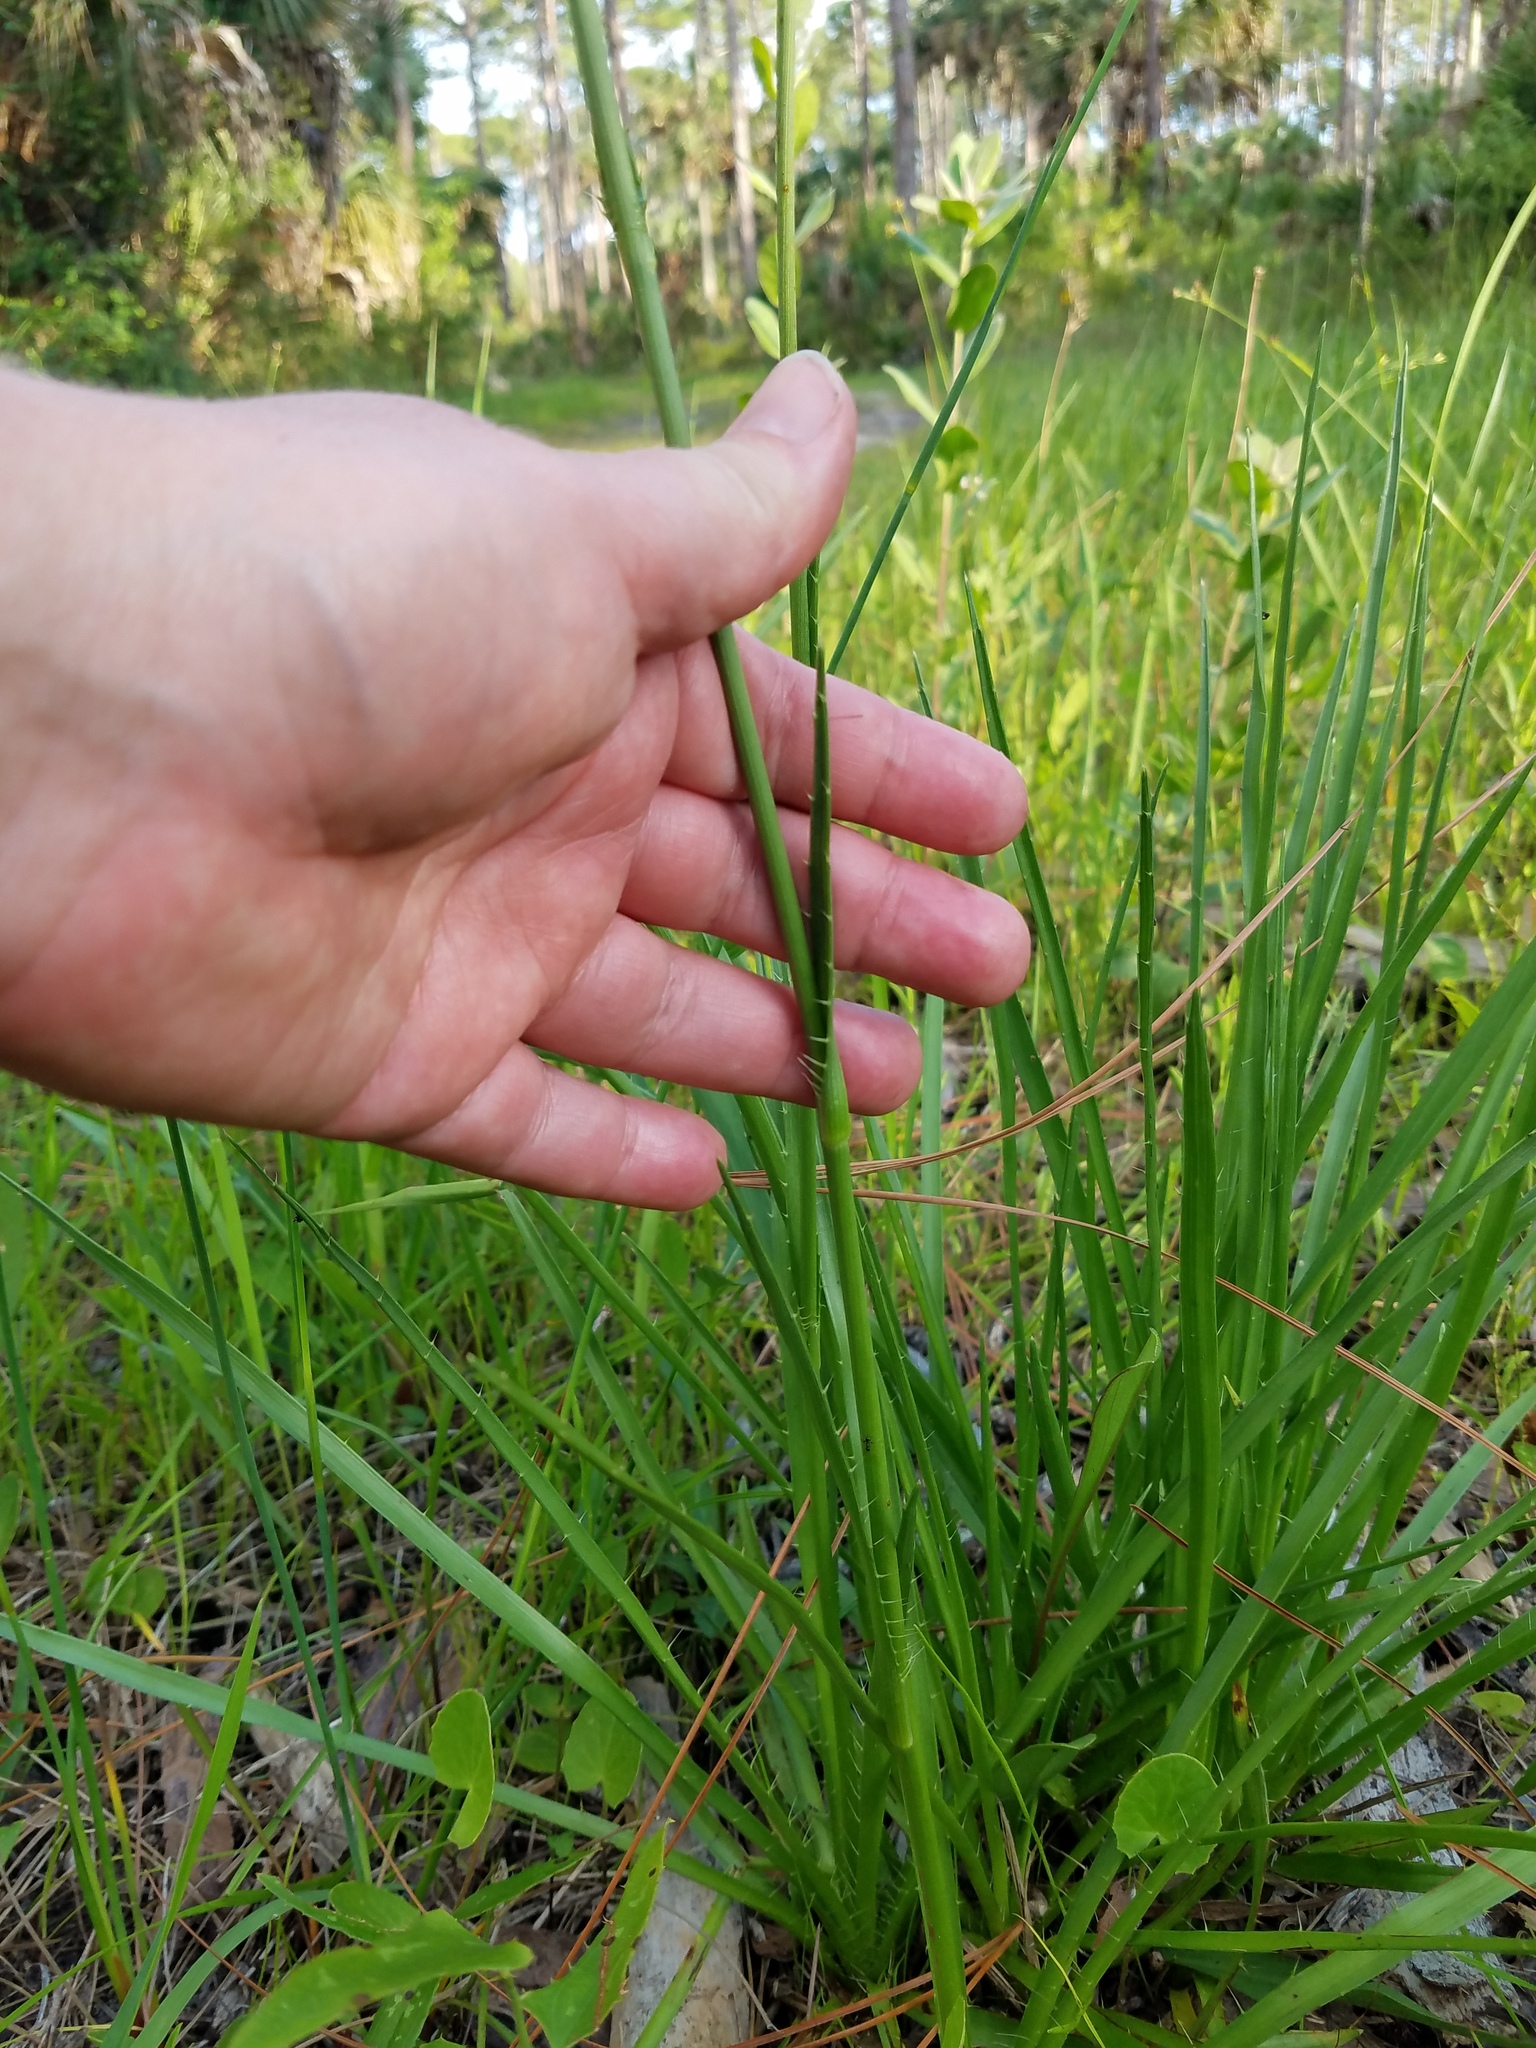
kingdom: Plantae
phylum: Tracheophyta
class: Magnoliopsida
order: Apiales
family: Apiaceae
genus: Eryngium
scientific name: Eryngium yuccifolium
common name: Button eryngo
